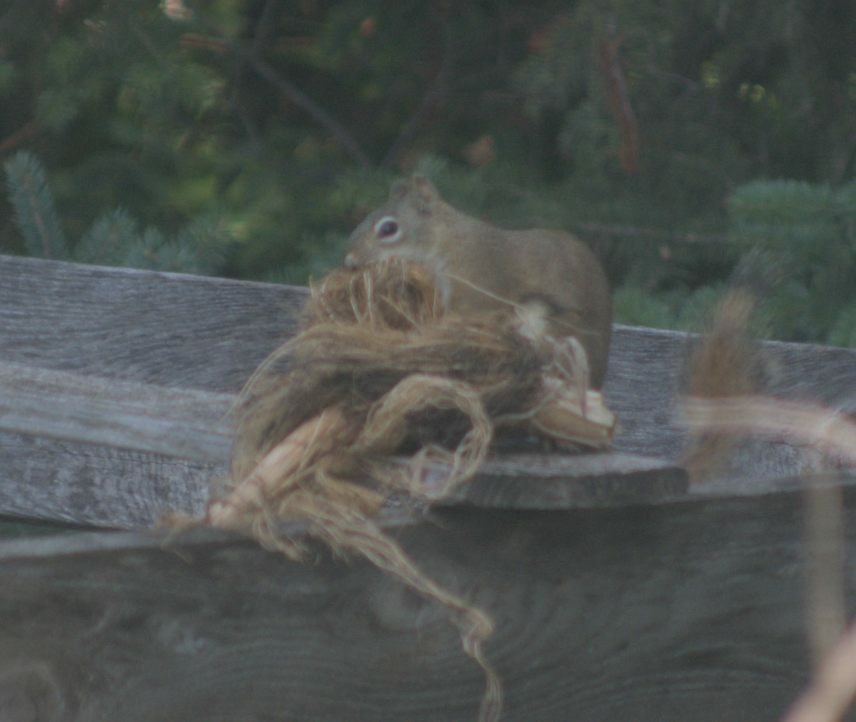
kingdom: Animalia
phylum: Chordata
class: Mammalia
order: Rodentia
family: Sciuridae
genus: Tamiasciurus
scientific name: Tamiasciurus hudsonicus
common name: Red squirrel
